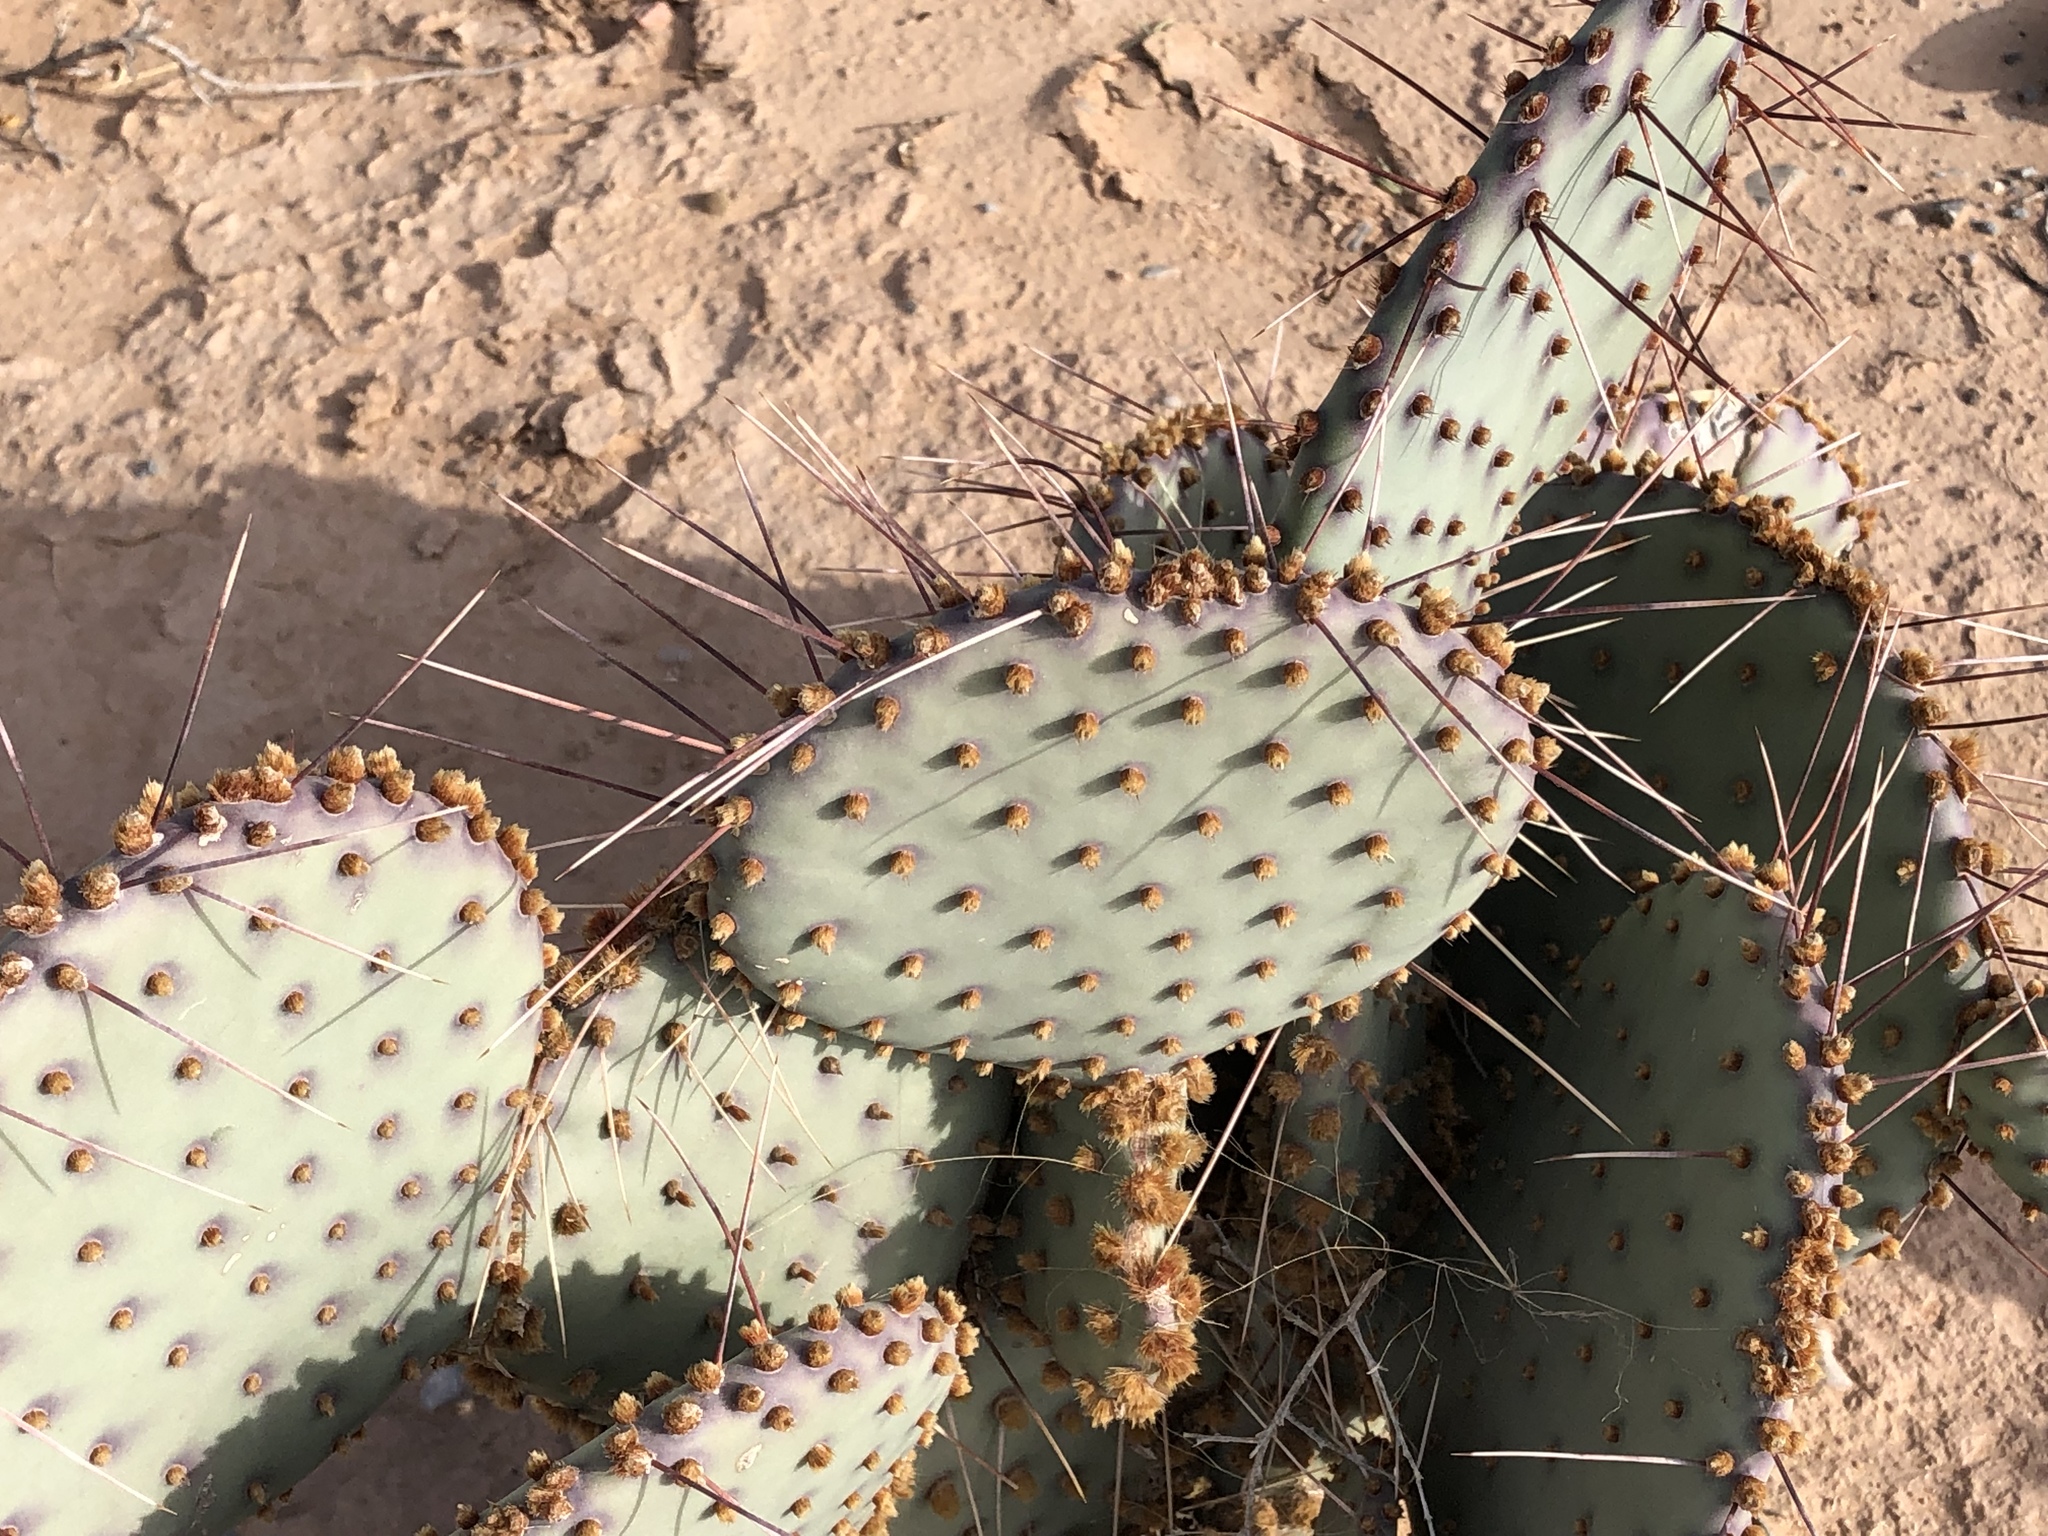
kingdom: Plantae
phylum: Tracheophyta
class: Magnoliopsida
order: Caryophyllales
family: Cactaceae
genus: Opuntia
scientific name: Opuntia macrocentra
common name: Purple prickly-pear
